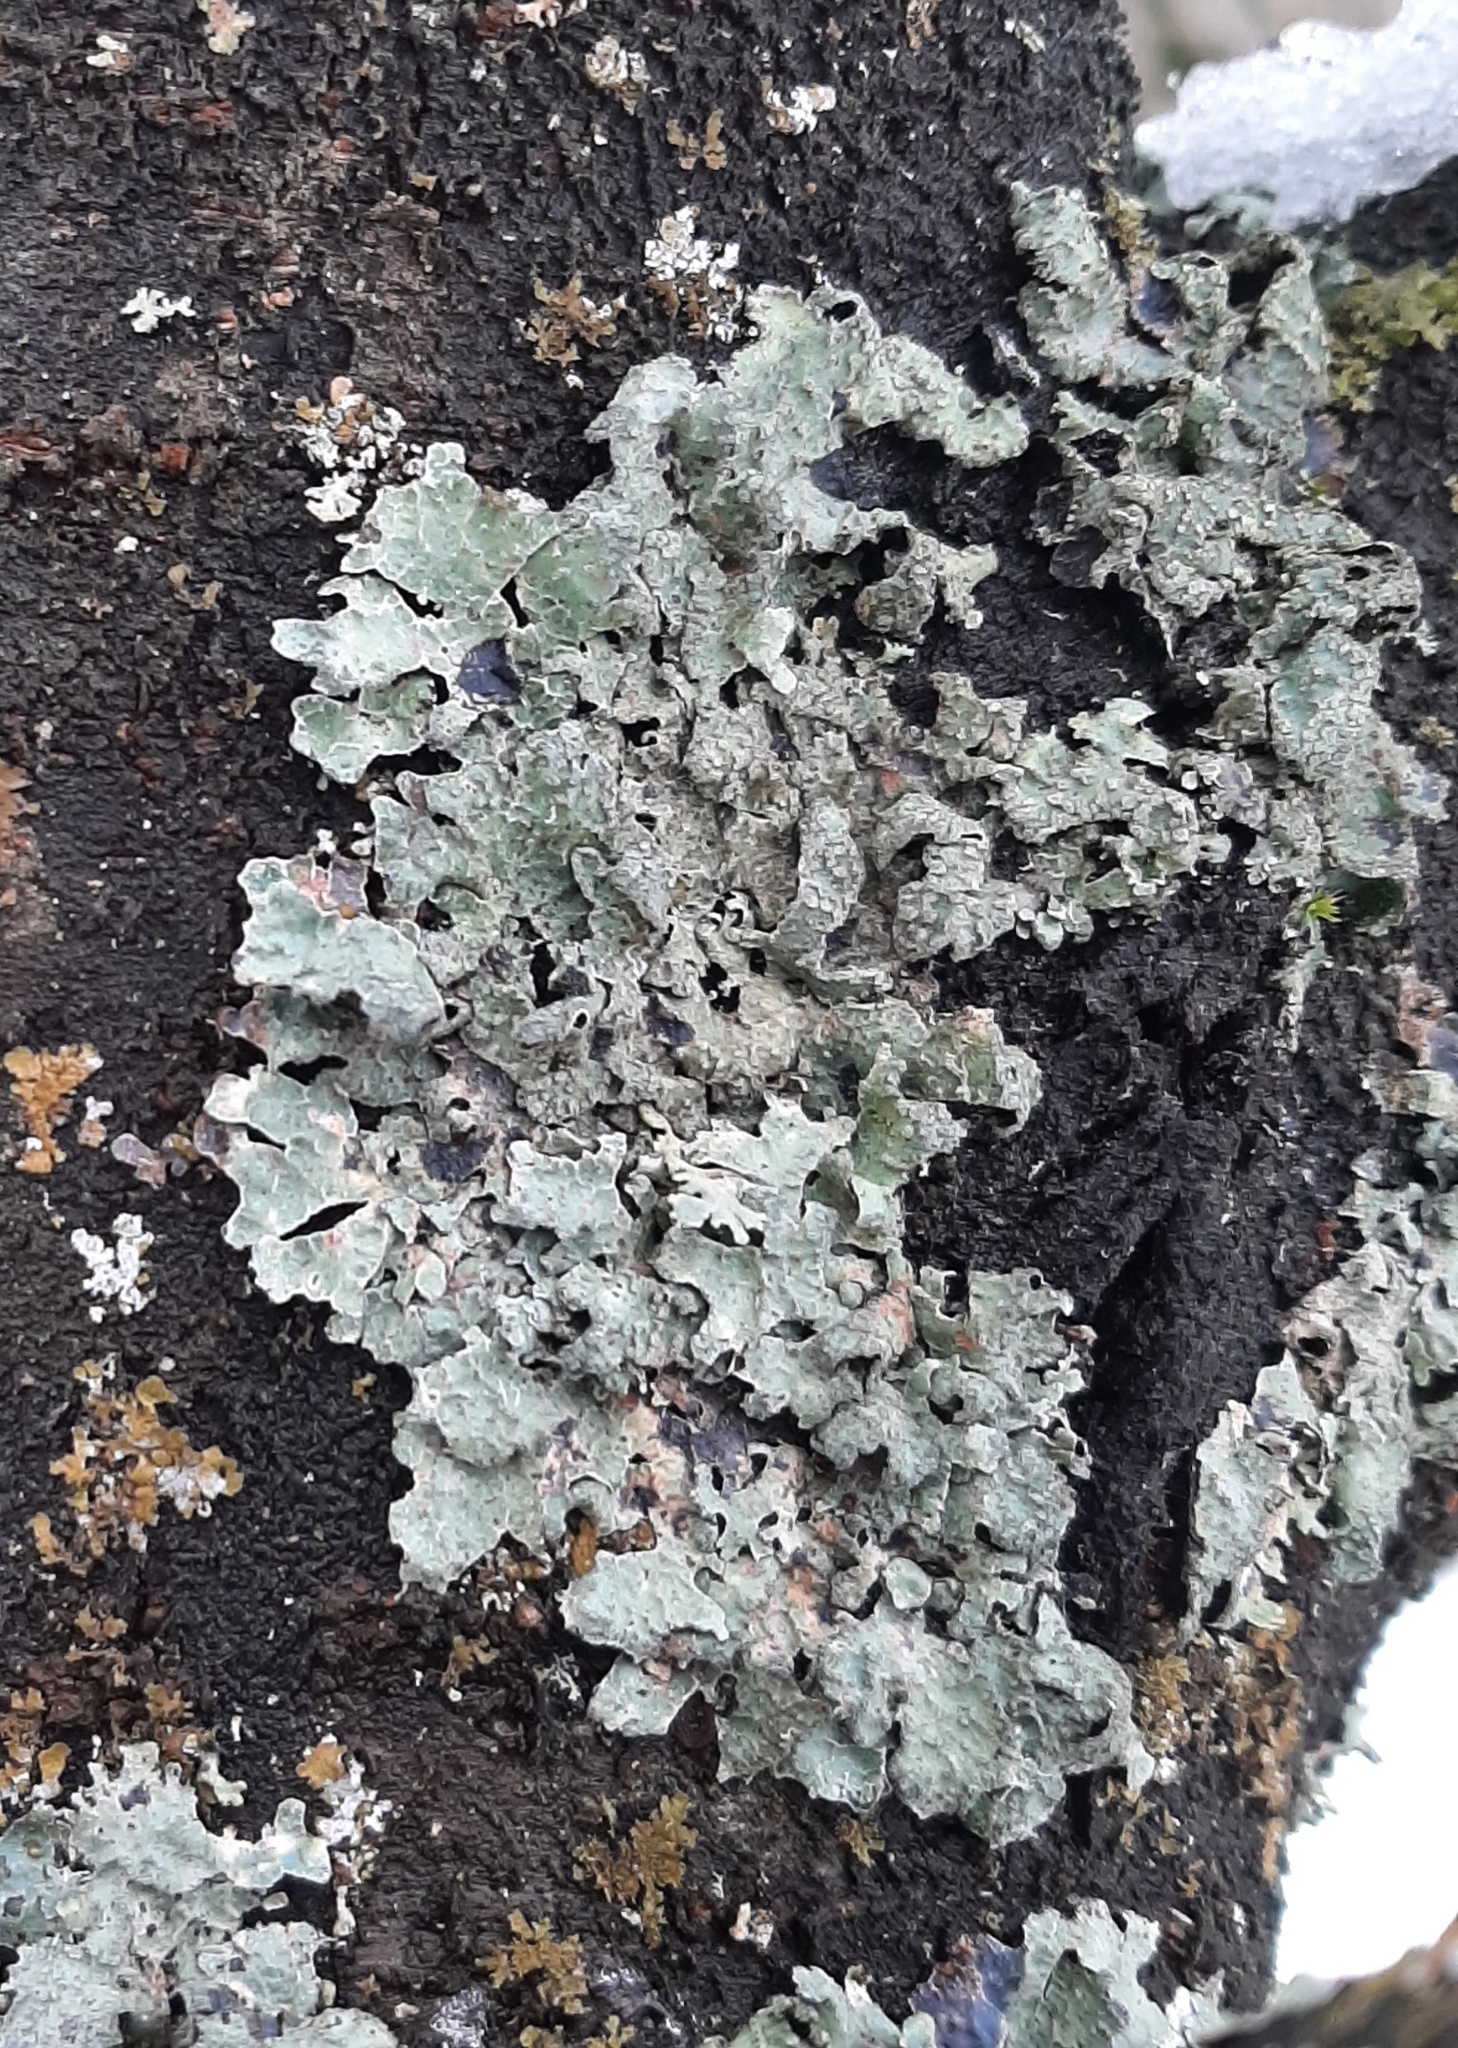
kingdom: Fungi
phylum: Ascomycota
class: Lecanoromycetes
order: Lecanorales
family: Parmeliaceae
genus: Parmelia
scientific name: Parmelia sulcata
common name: Netted shield lichen
